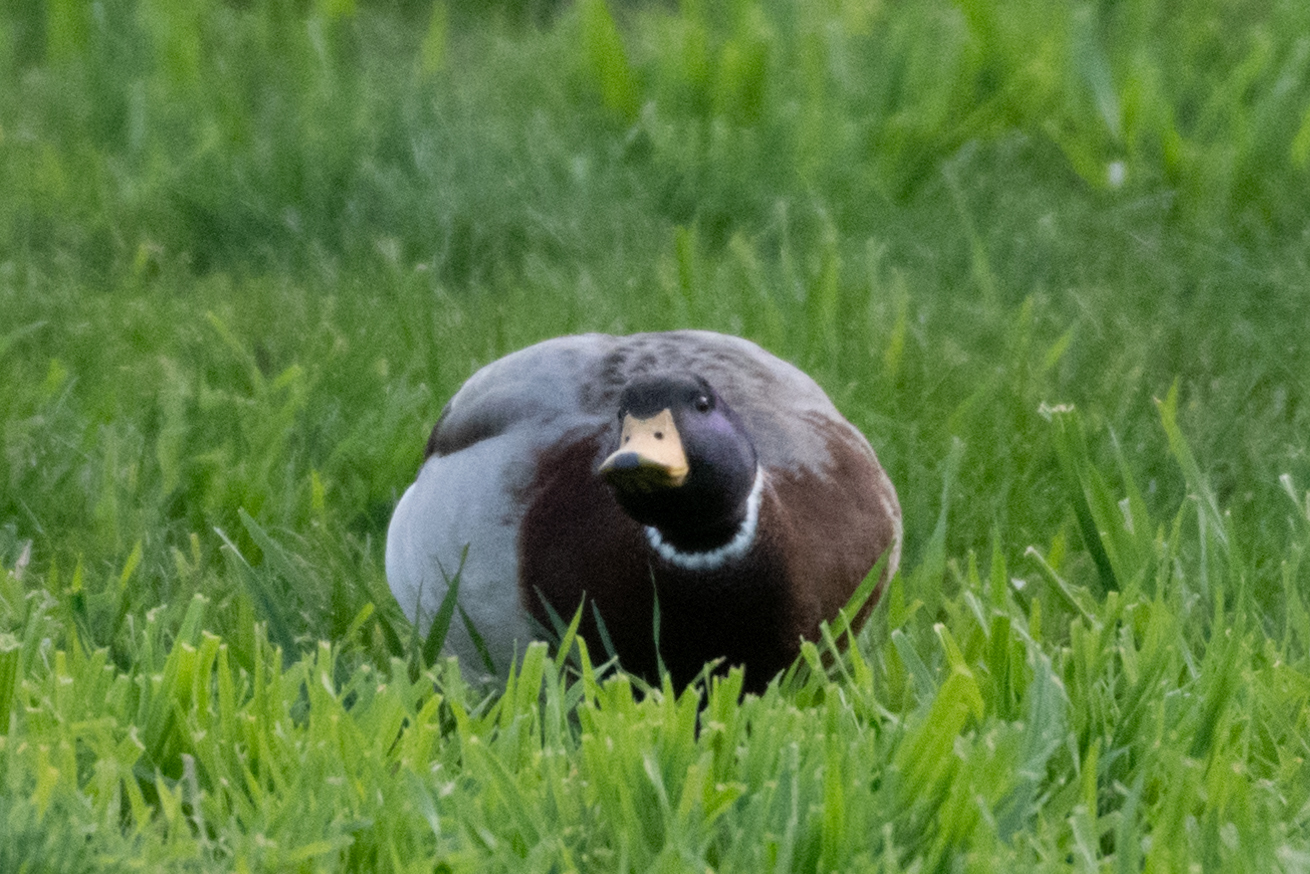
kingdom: Animalia
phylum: Chordata
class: Aves
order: Anseriformes
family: Anatidae
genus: Anas
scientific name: Anas platyrhynchos
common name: Mallard
